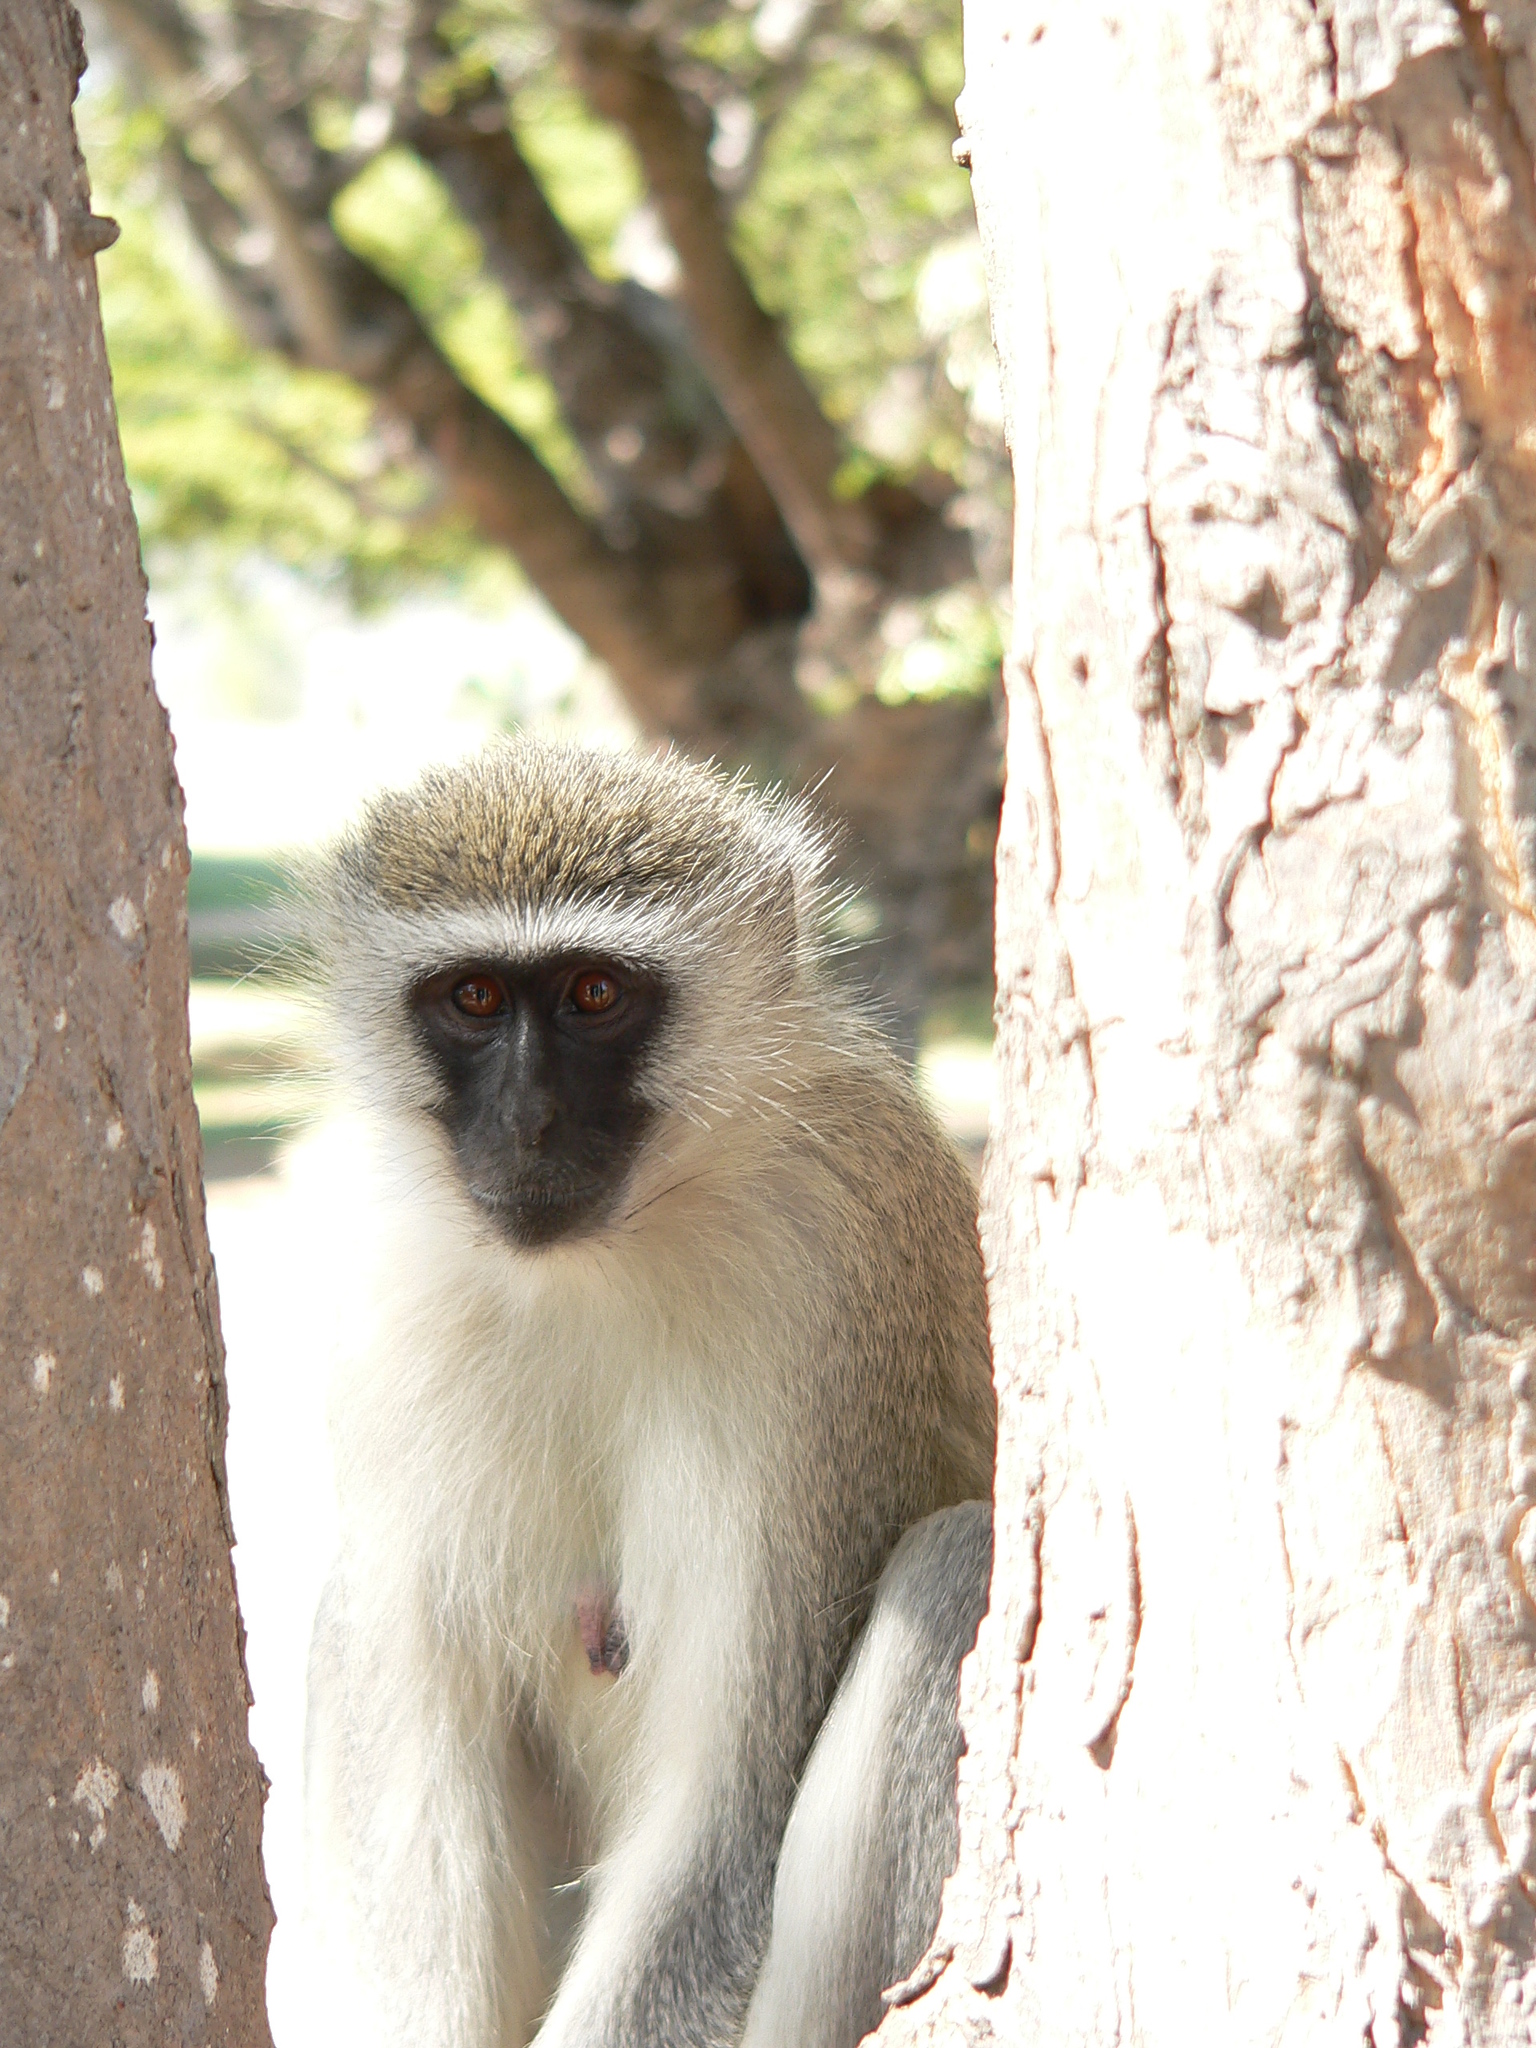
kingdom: Animalia
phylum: Chordata
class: Mammalia
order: Primates
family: Cercopithecidae
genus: Chlorocebus
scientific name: Chlorocebus pygerythrus
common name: Vervet monkey
